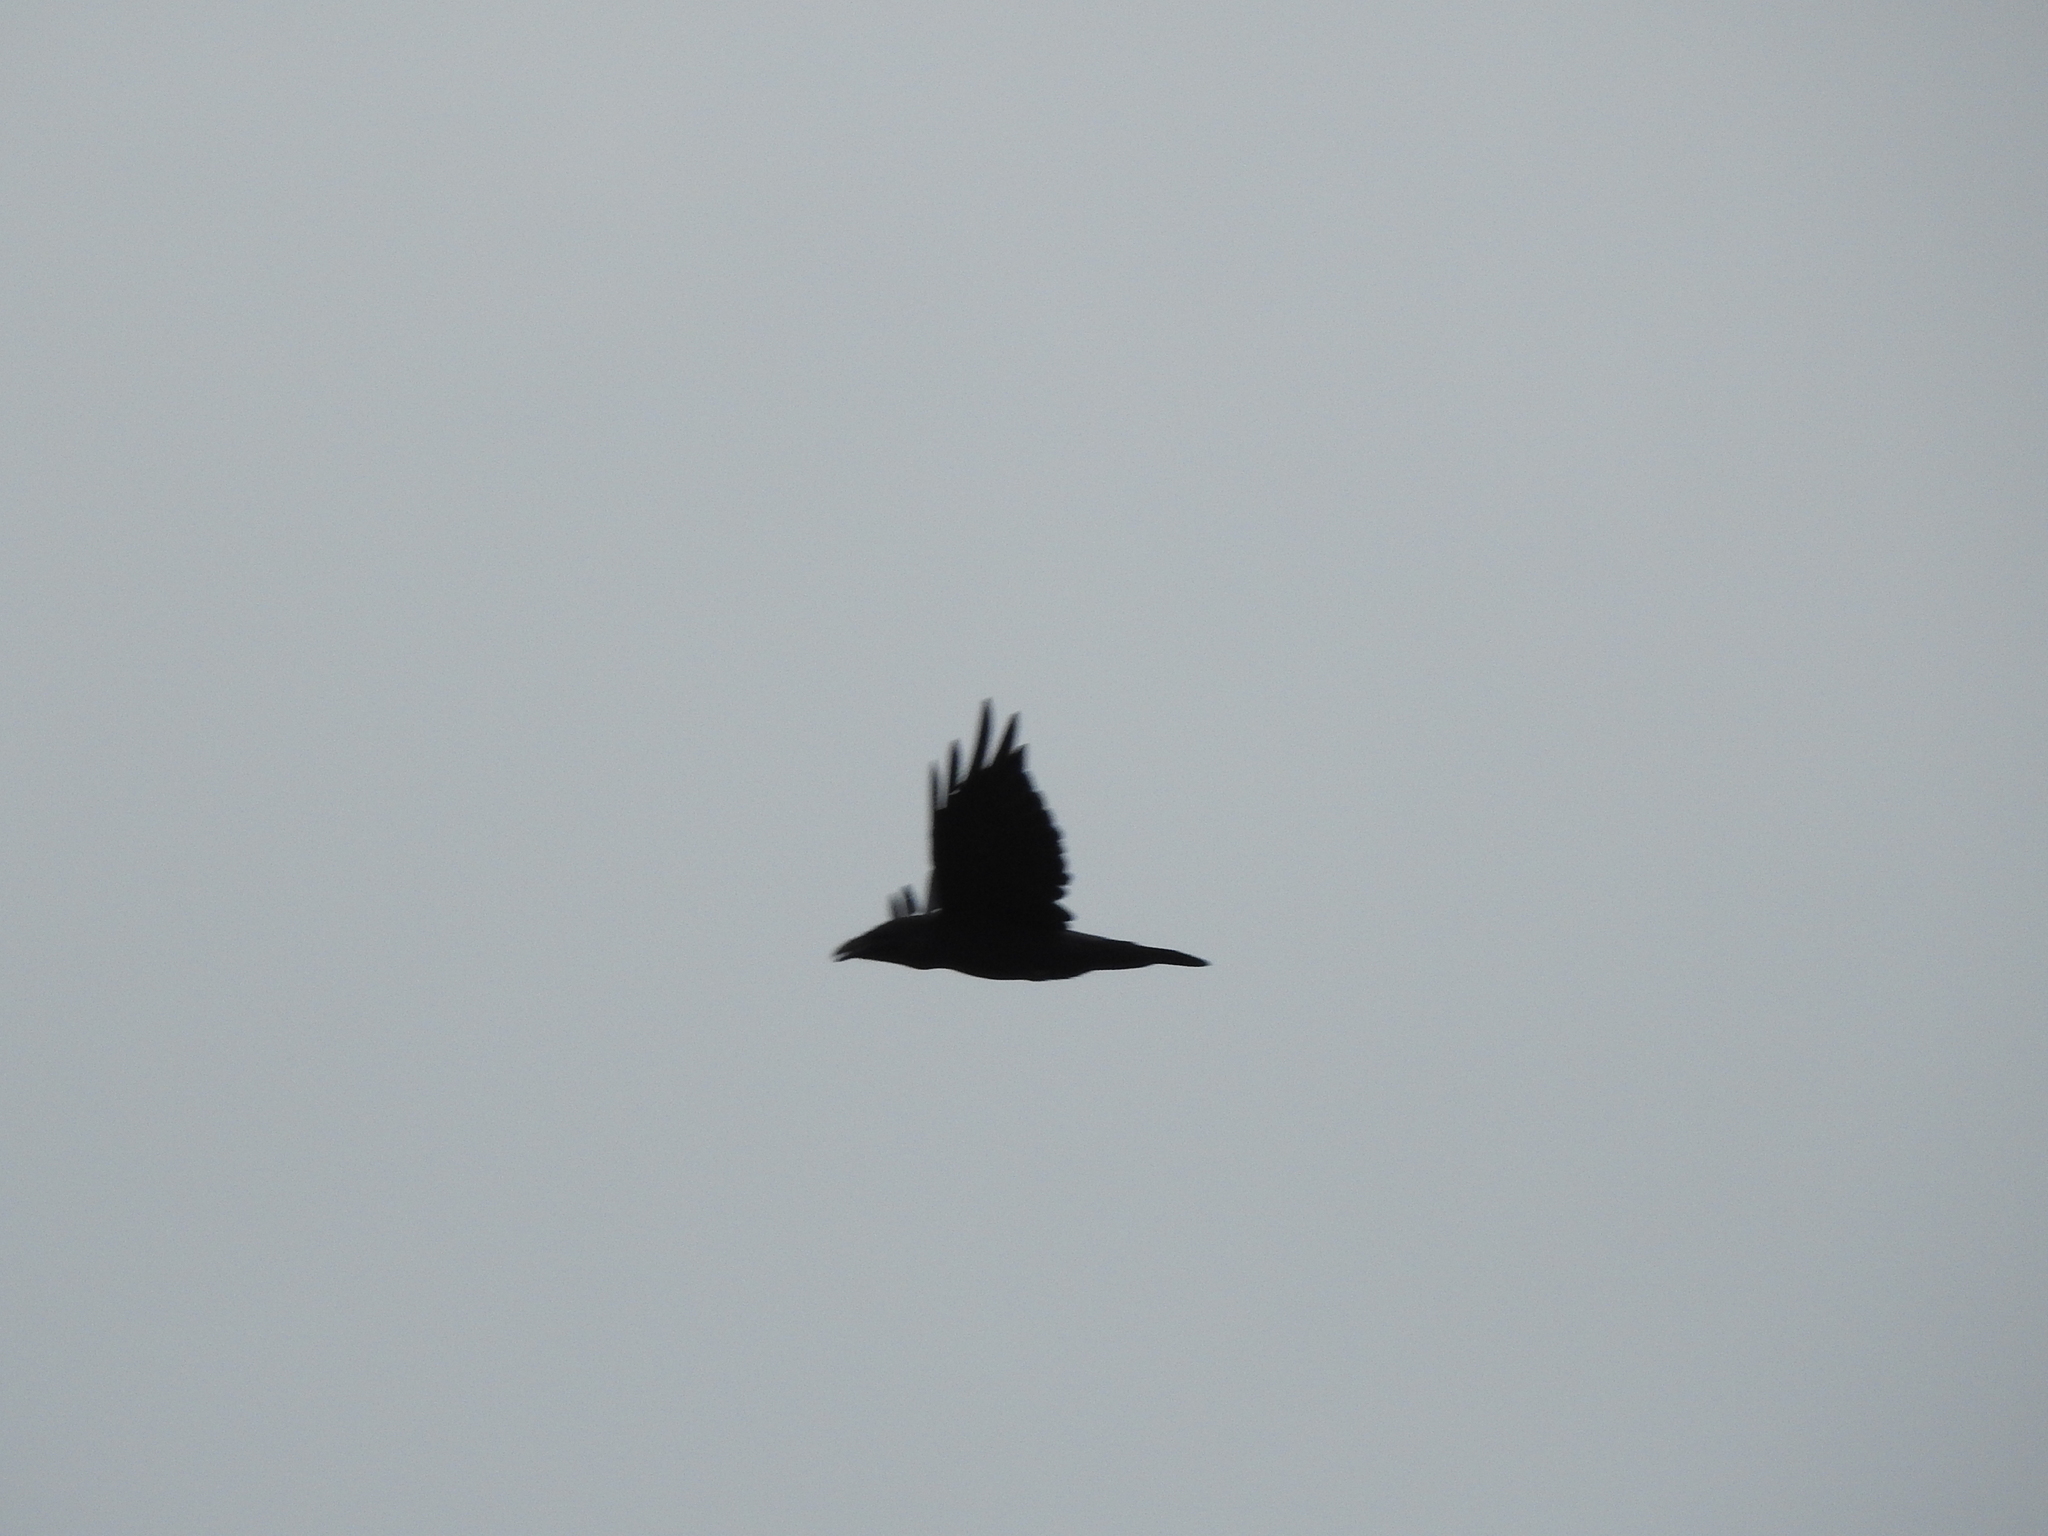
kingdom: Animalia
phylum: Chordata
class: Aves
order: Passeriformes
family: Corvidae
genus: Corvus
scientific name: Corvus corax
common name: Common raven
